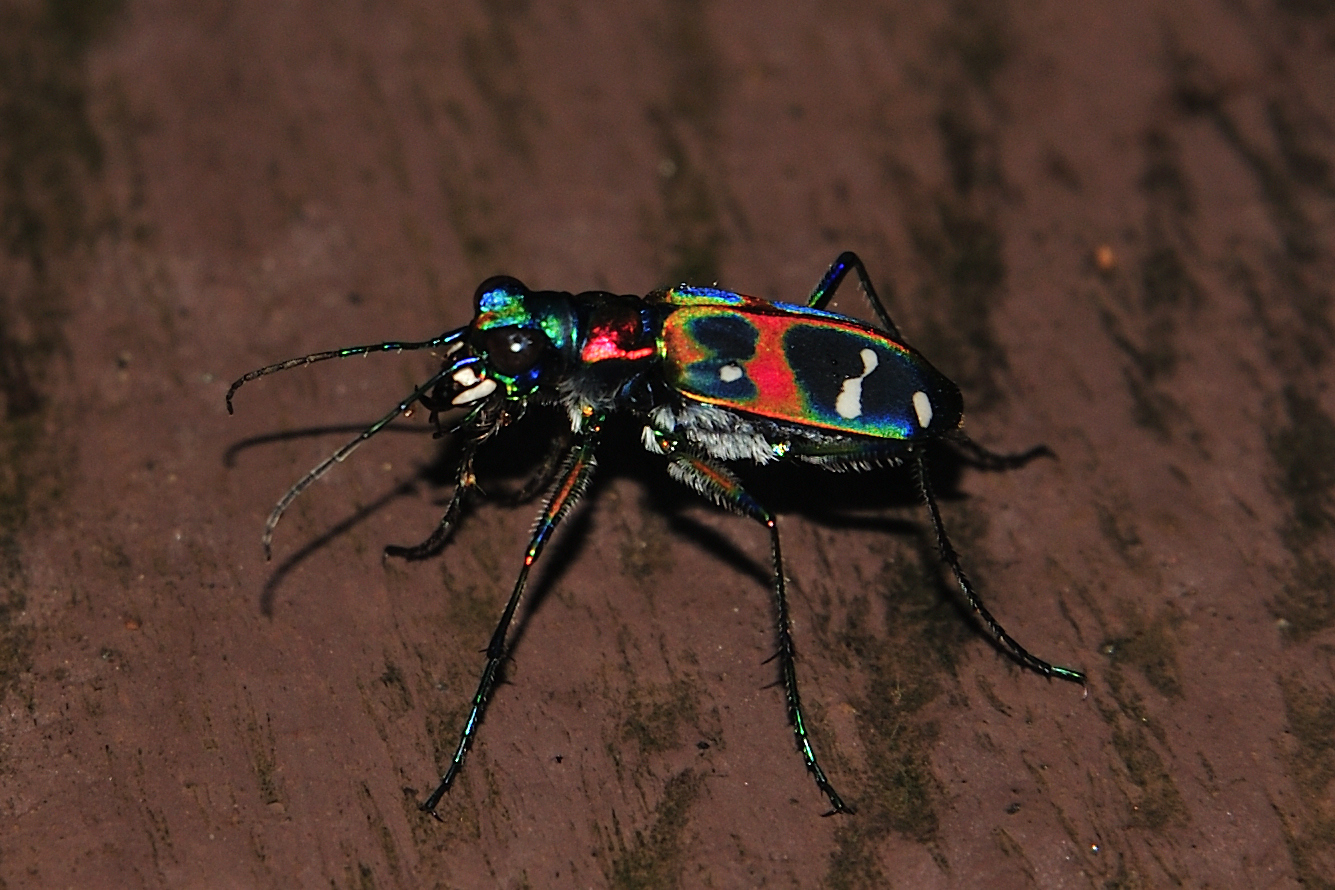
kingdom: Animalia
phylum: Arthropoda
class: Insecta
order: Coleoptera
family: Carabidae
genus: Cicindela
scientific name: Cicindela chinensis
